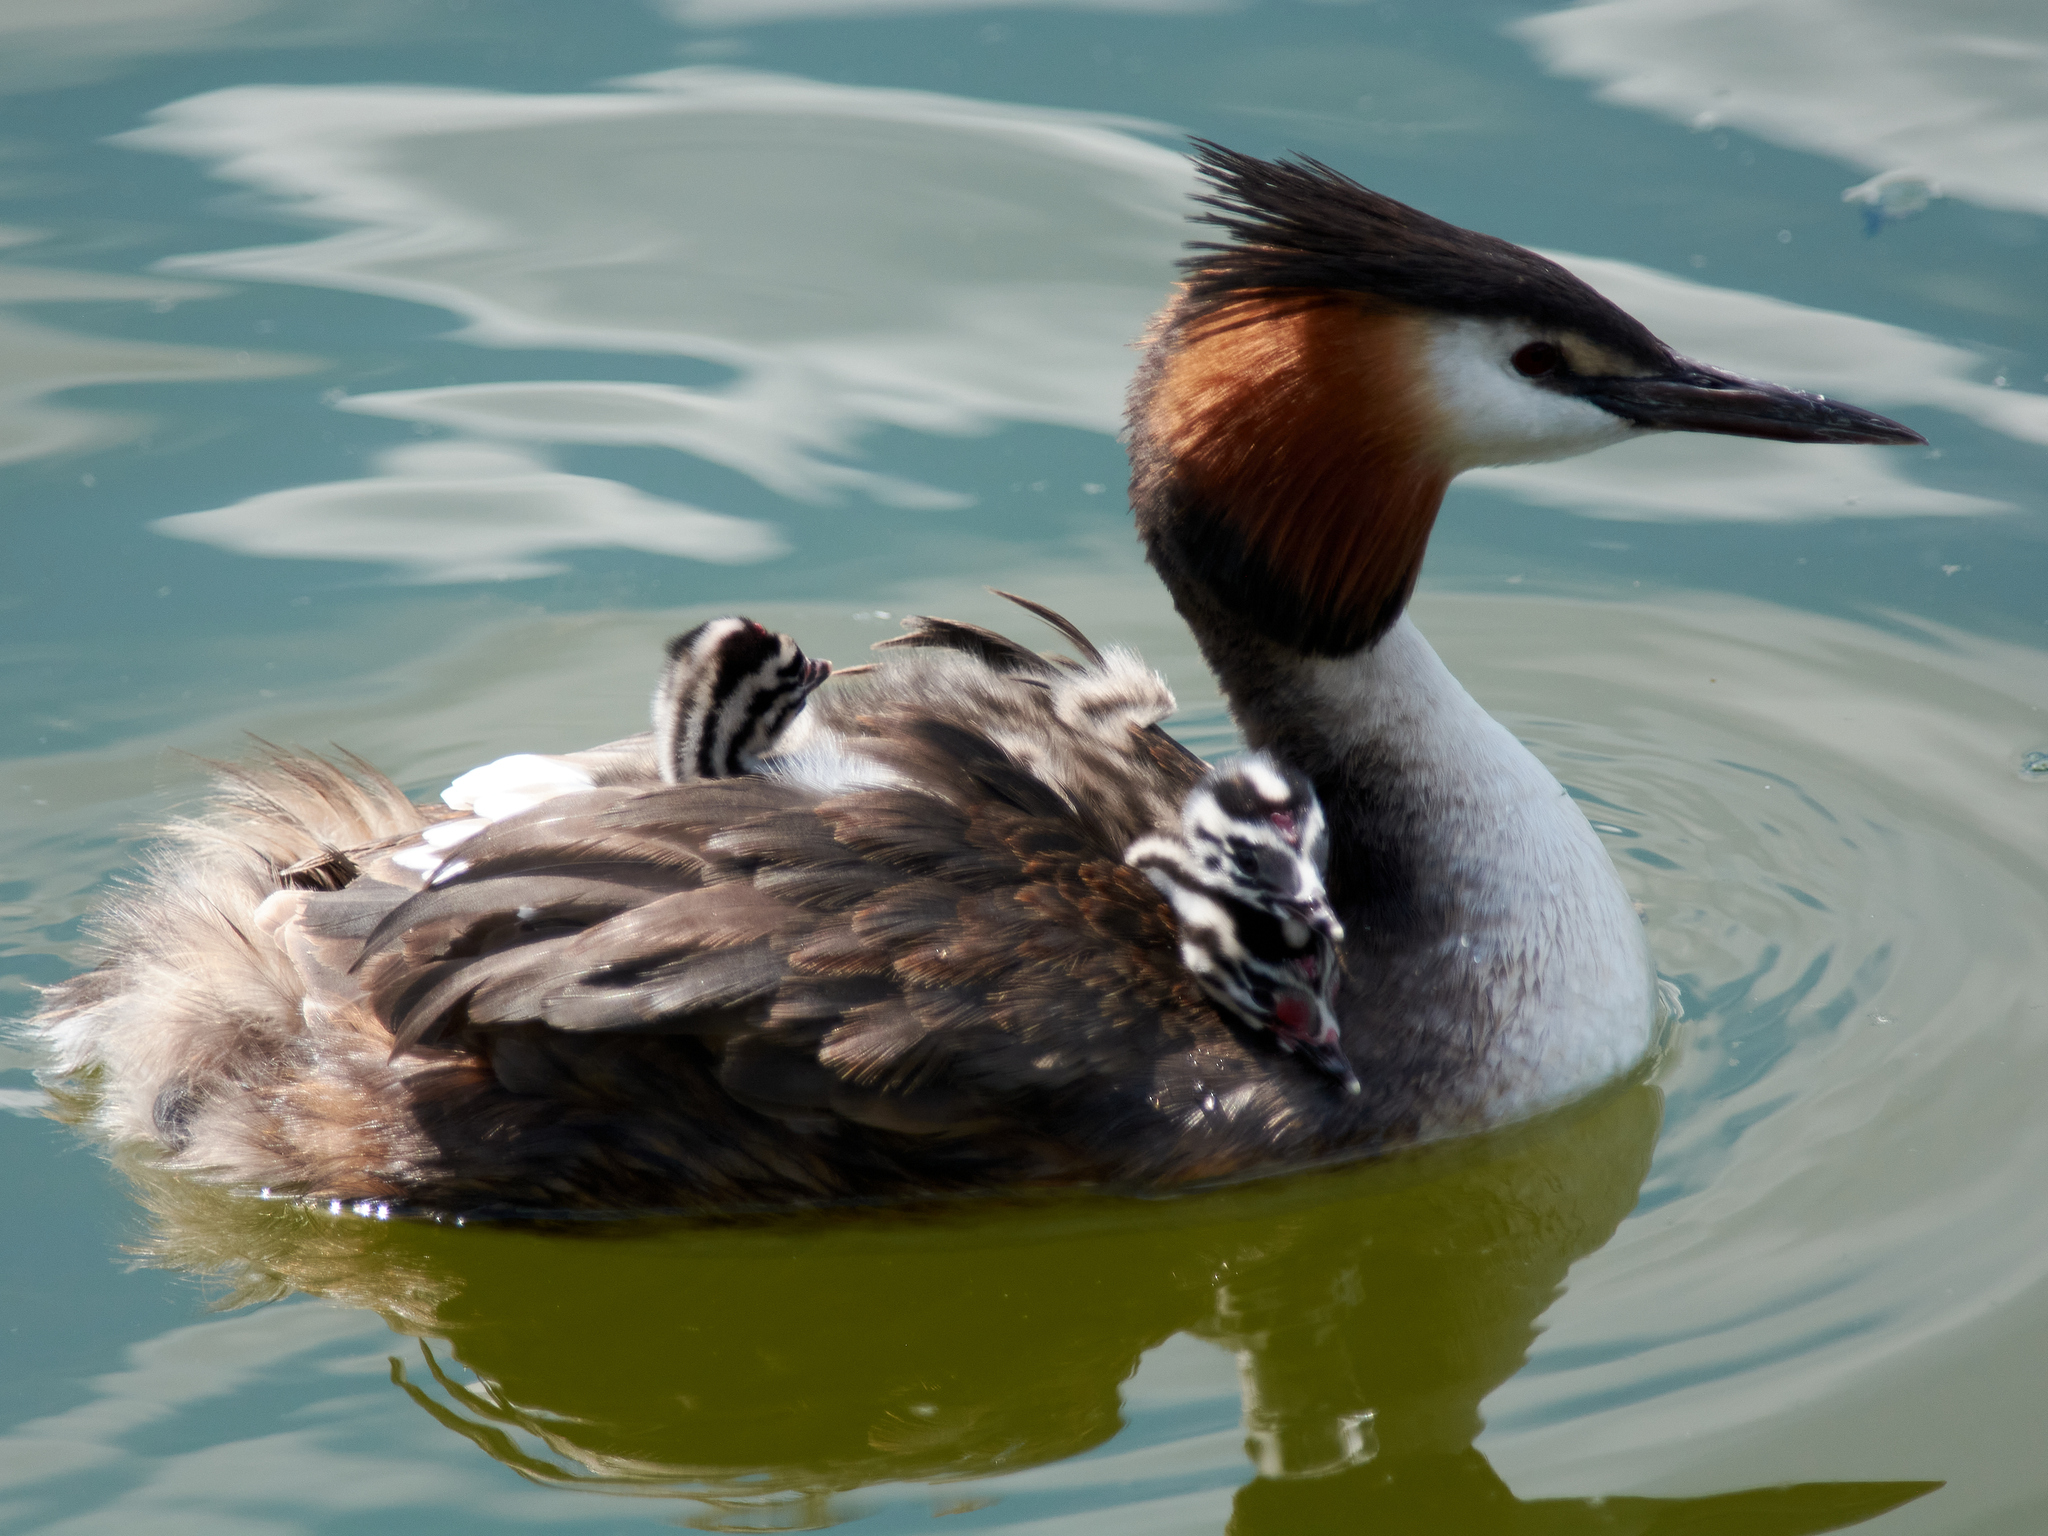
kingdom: Animalia
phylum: Chordata
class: Aves
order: Podicipediformes
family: Podicipedidae
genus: Podiceps
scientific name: Podiceps cristatus
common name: Great crested grebe
